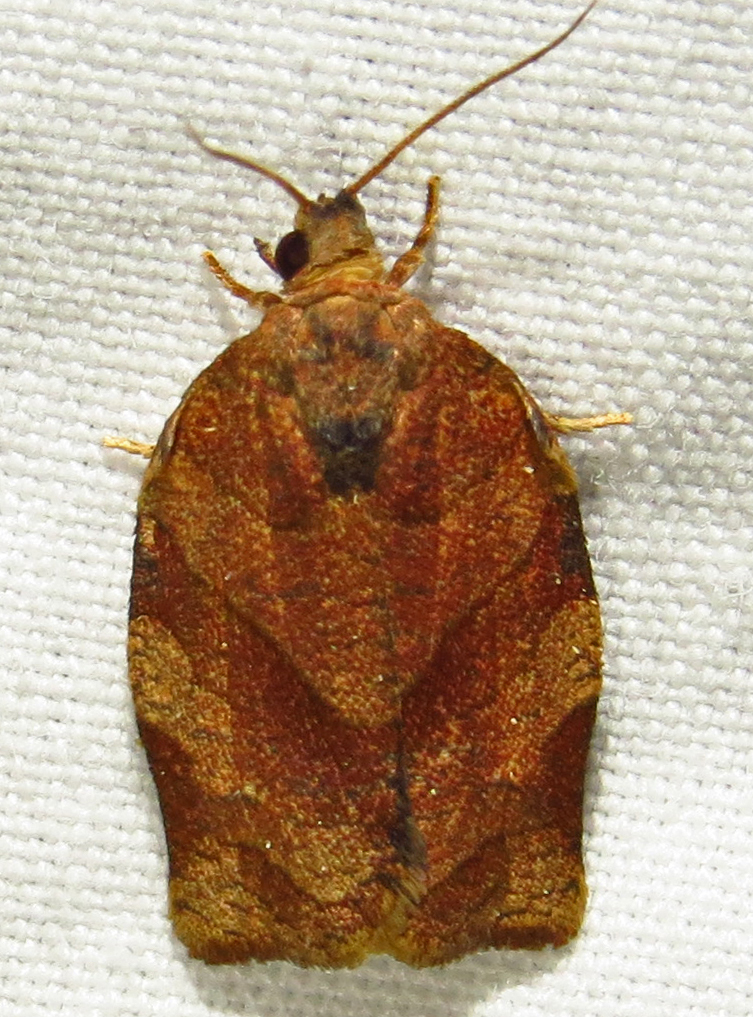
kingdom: Animalia
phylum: Arthropoda
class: Insecta
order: Lepidoptera
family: Tortricidae
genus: Choristoneura
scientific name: Choristoneura rosaceana
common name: Oblique-banded leafroller moth
